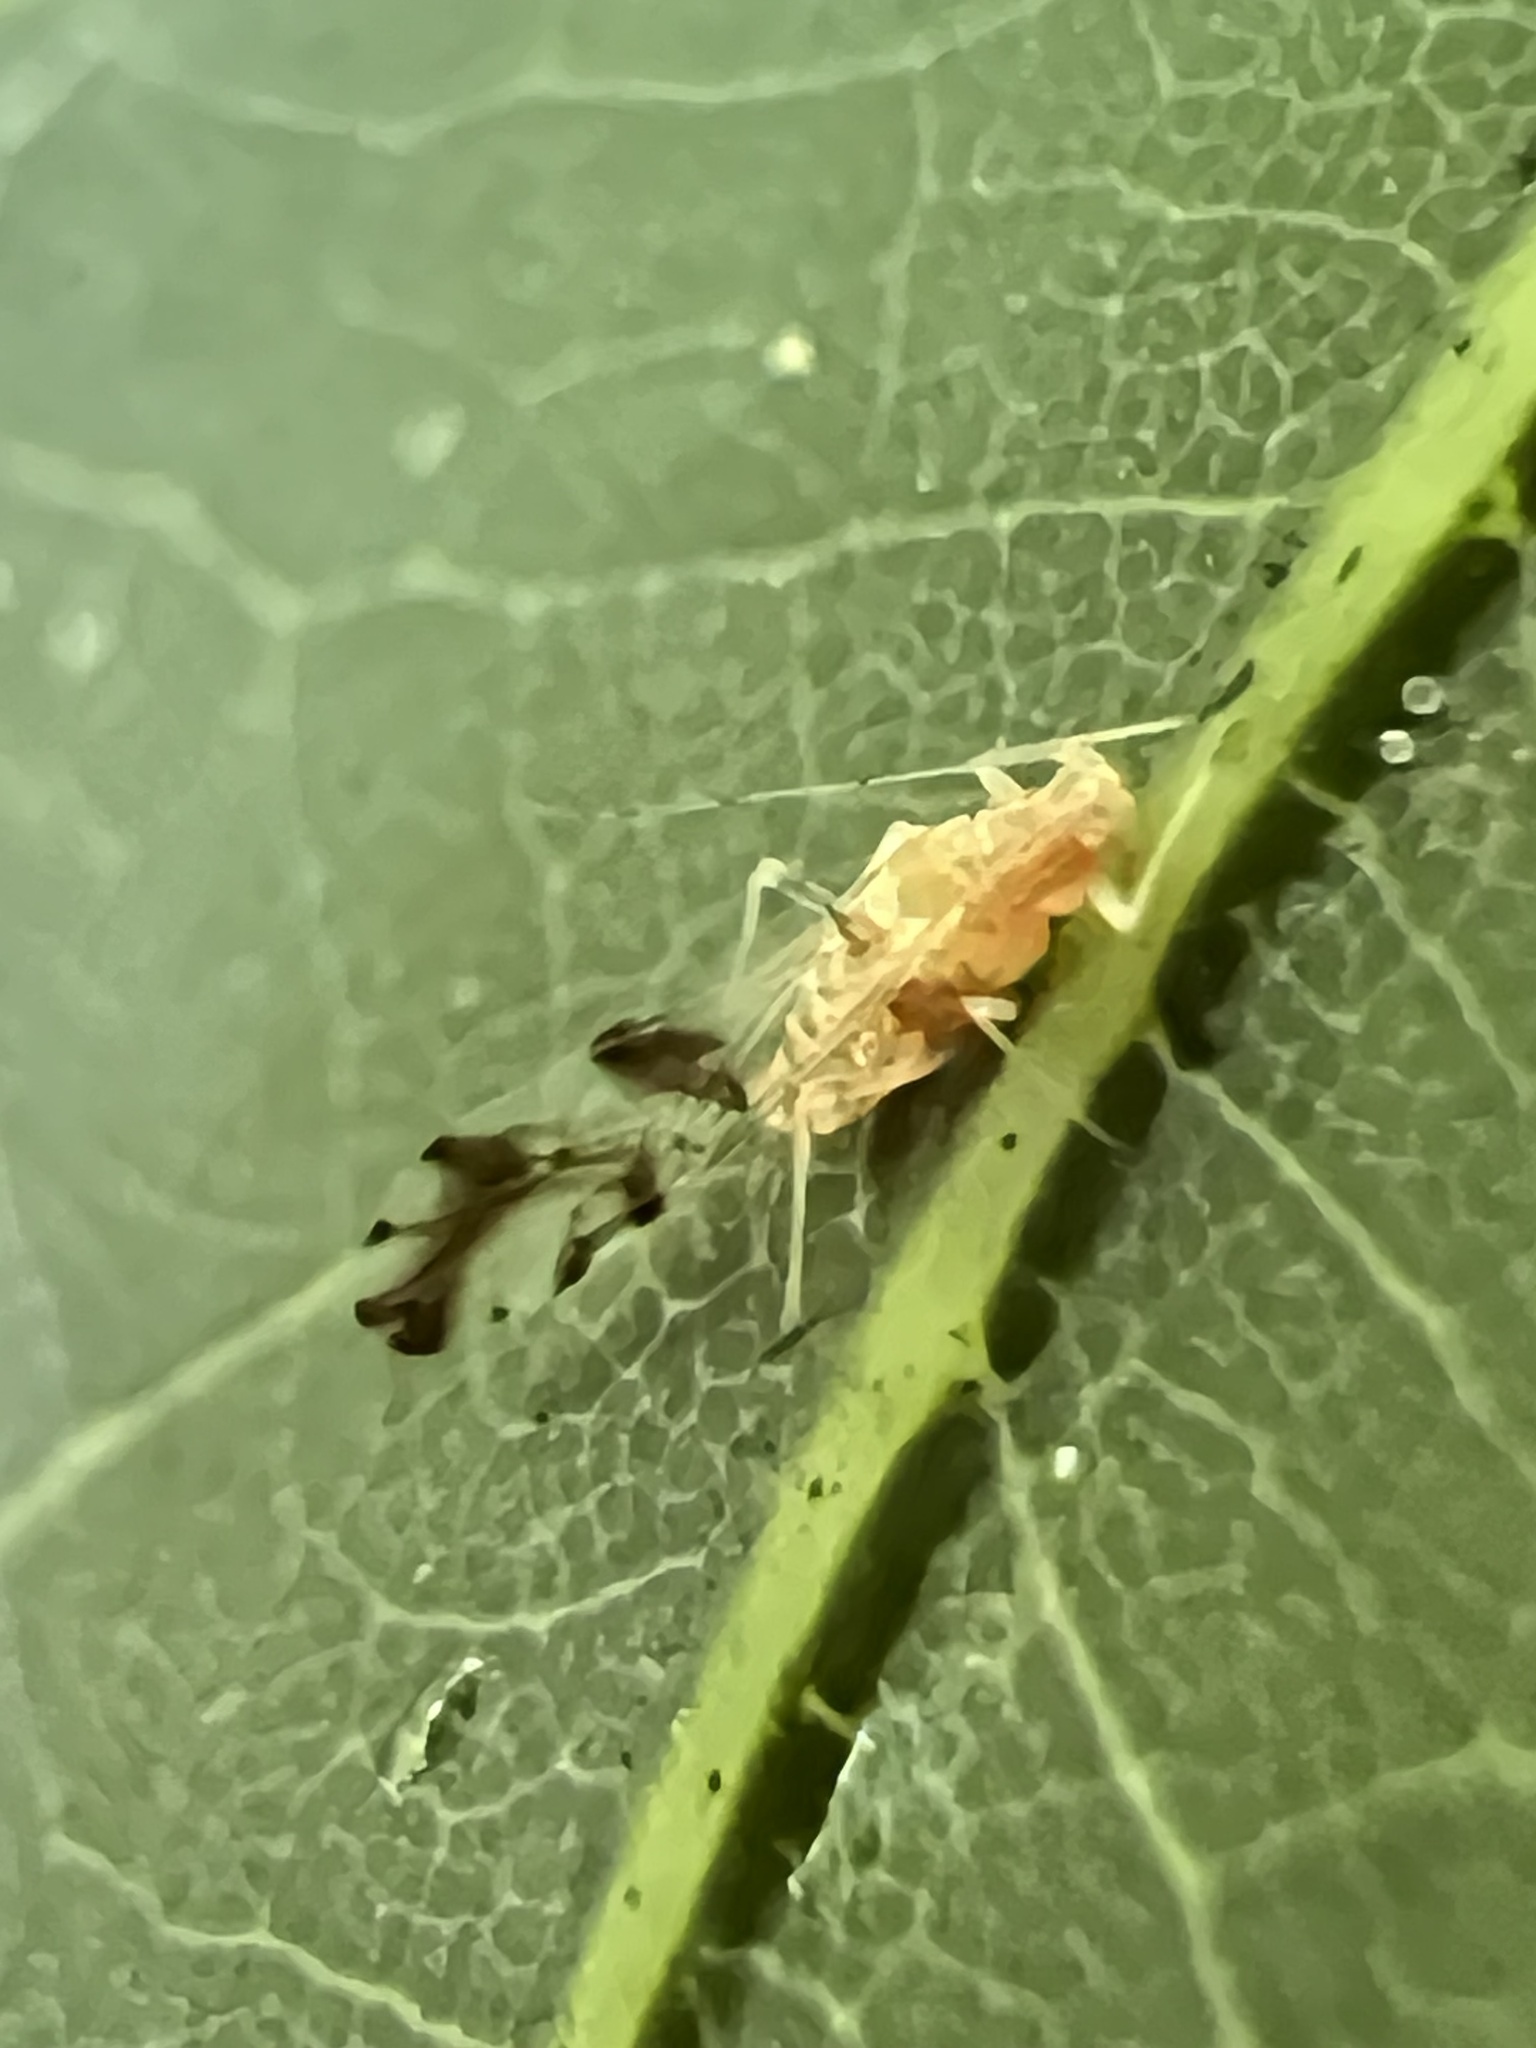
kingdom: Animalia
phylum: Arthropoda
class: Insecta
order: Hemiptera
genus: Neomyzocallis
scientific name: Neomyzocallis
